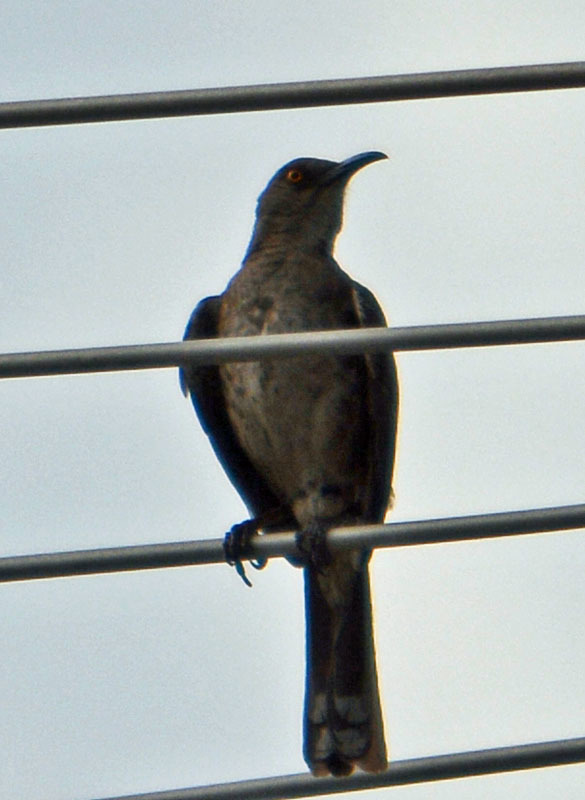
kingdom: Animalia
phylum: Chordata
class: Aves
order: Passeriformes
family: Mimidae
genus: Toxostoma
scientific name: Toxostoma curvirostre
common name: Curve-billed thrasher
